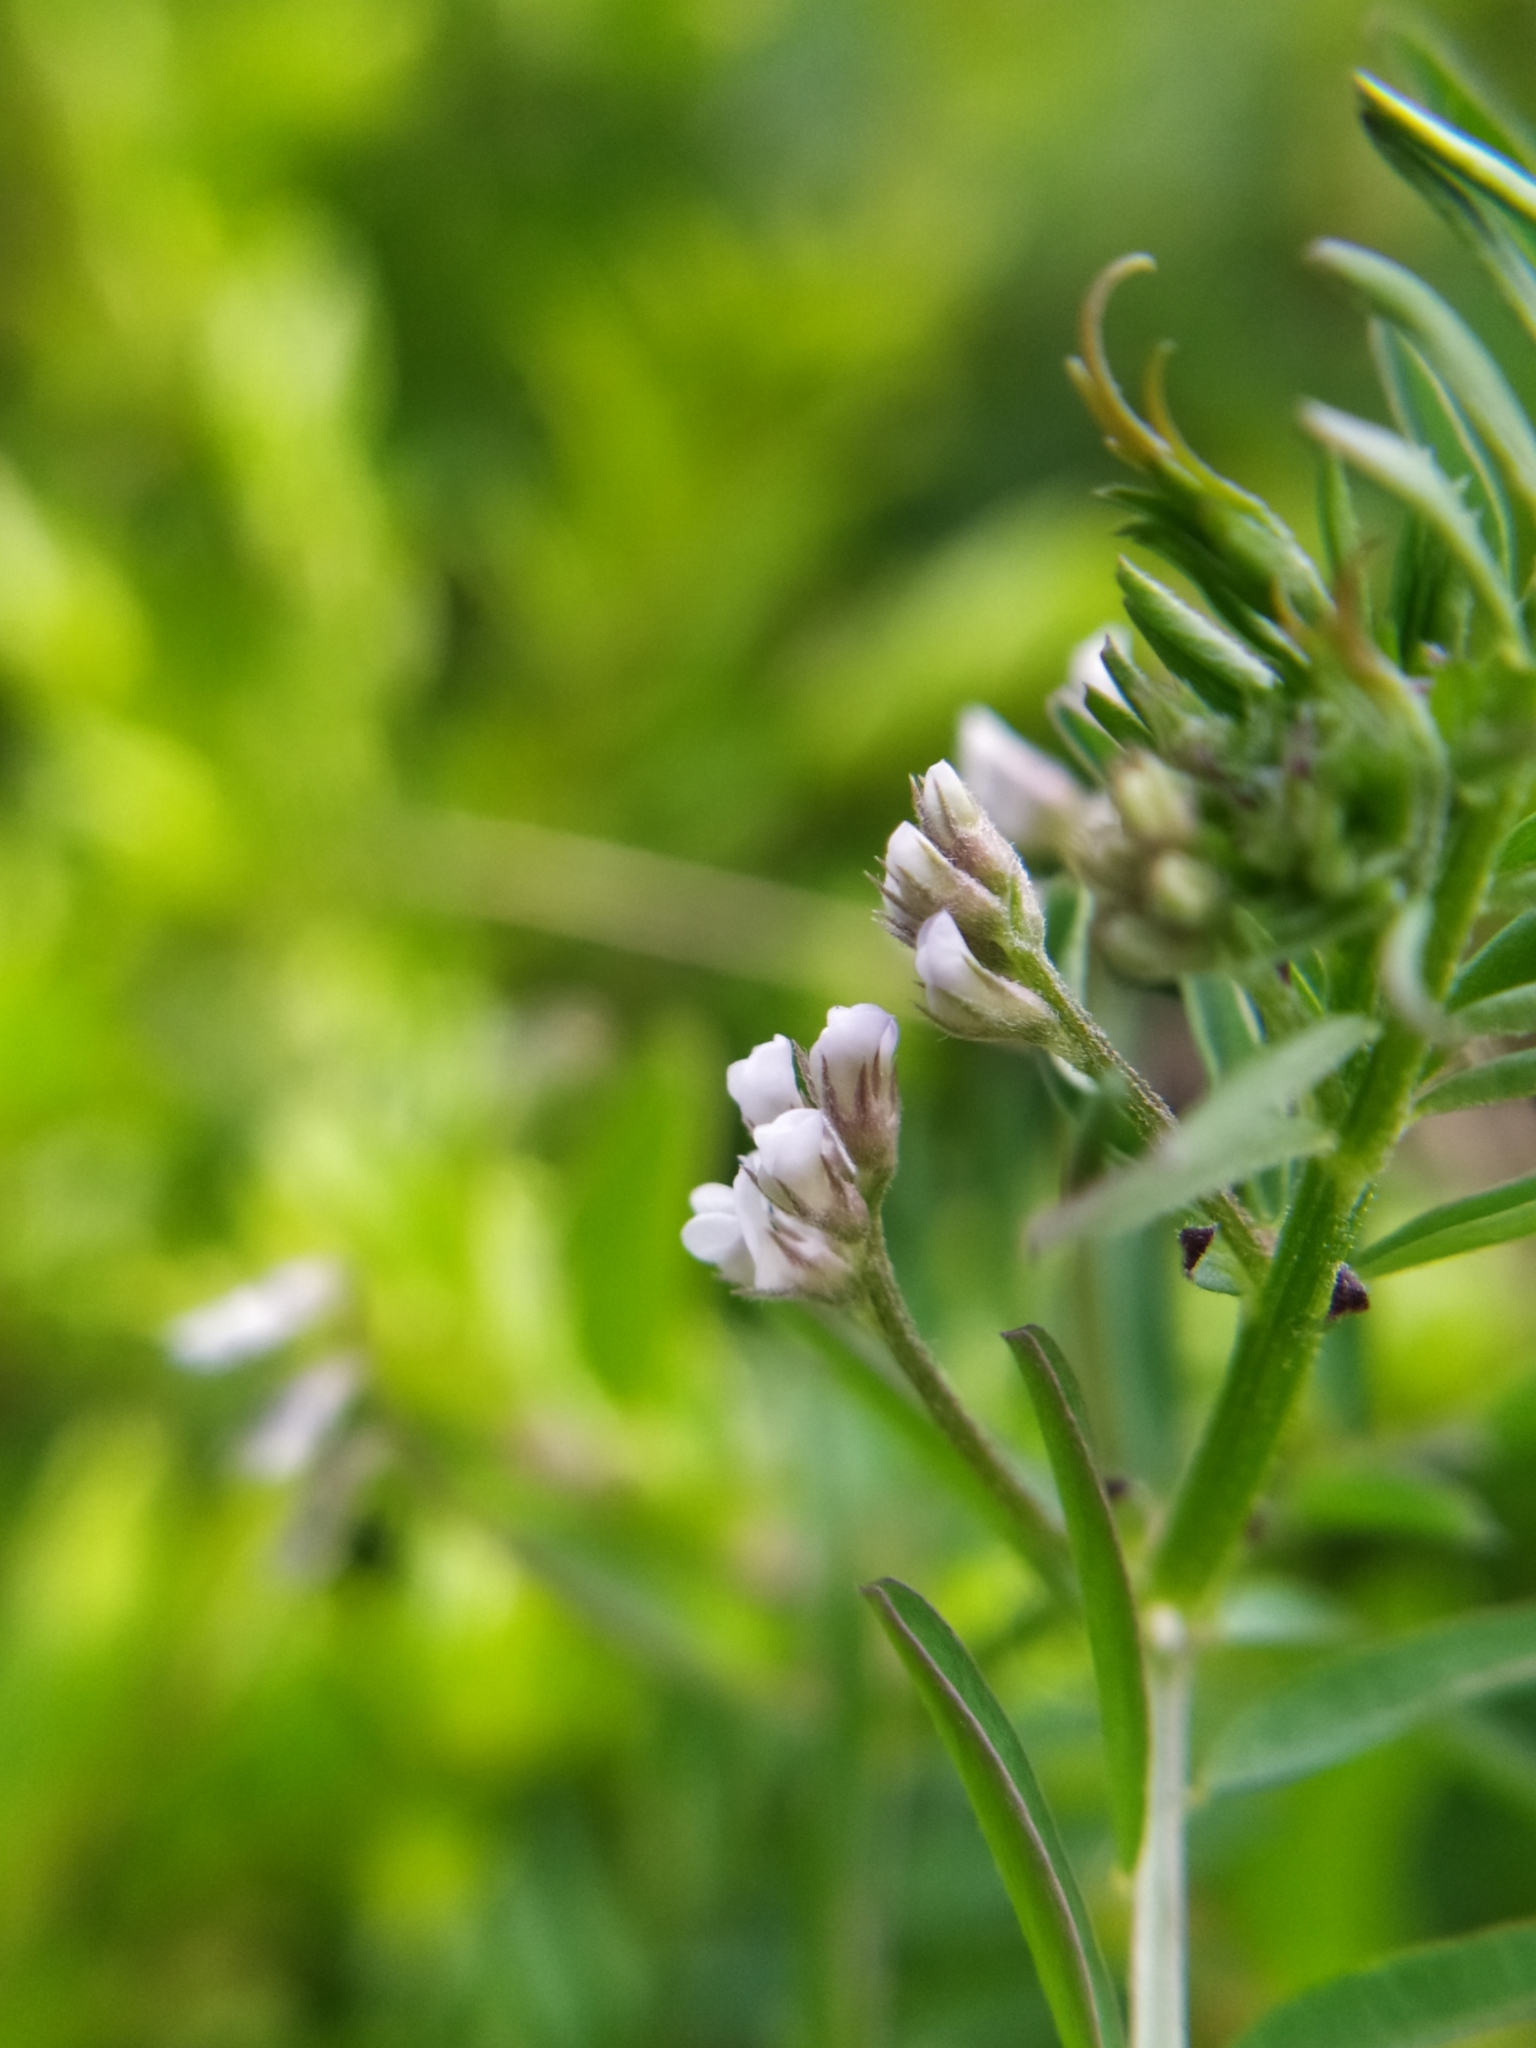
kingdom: Plantae
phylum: Tracheophyta
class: Magnoliopsida
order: Fabales
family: Fabaceae
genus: Vicia
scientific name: Vicia hirsuta
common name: Tiny vetch
